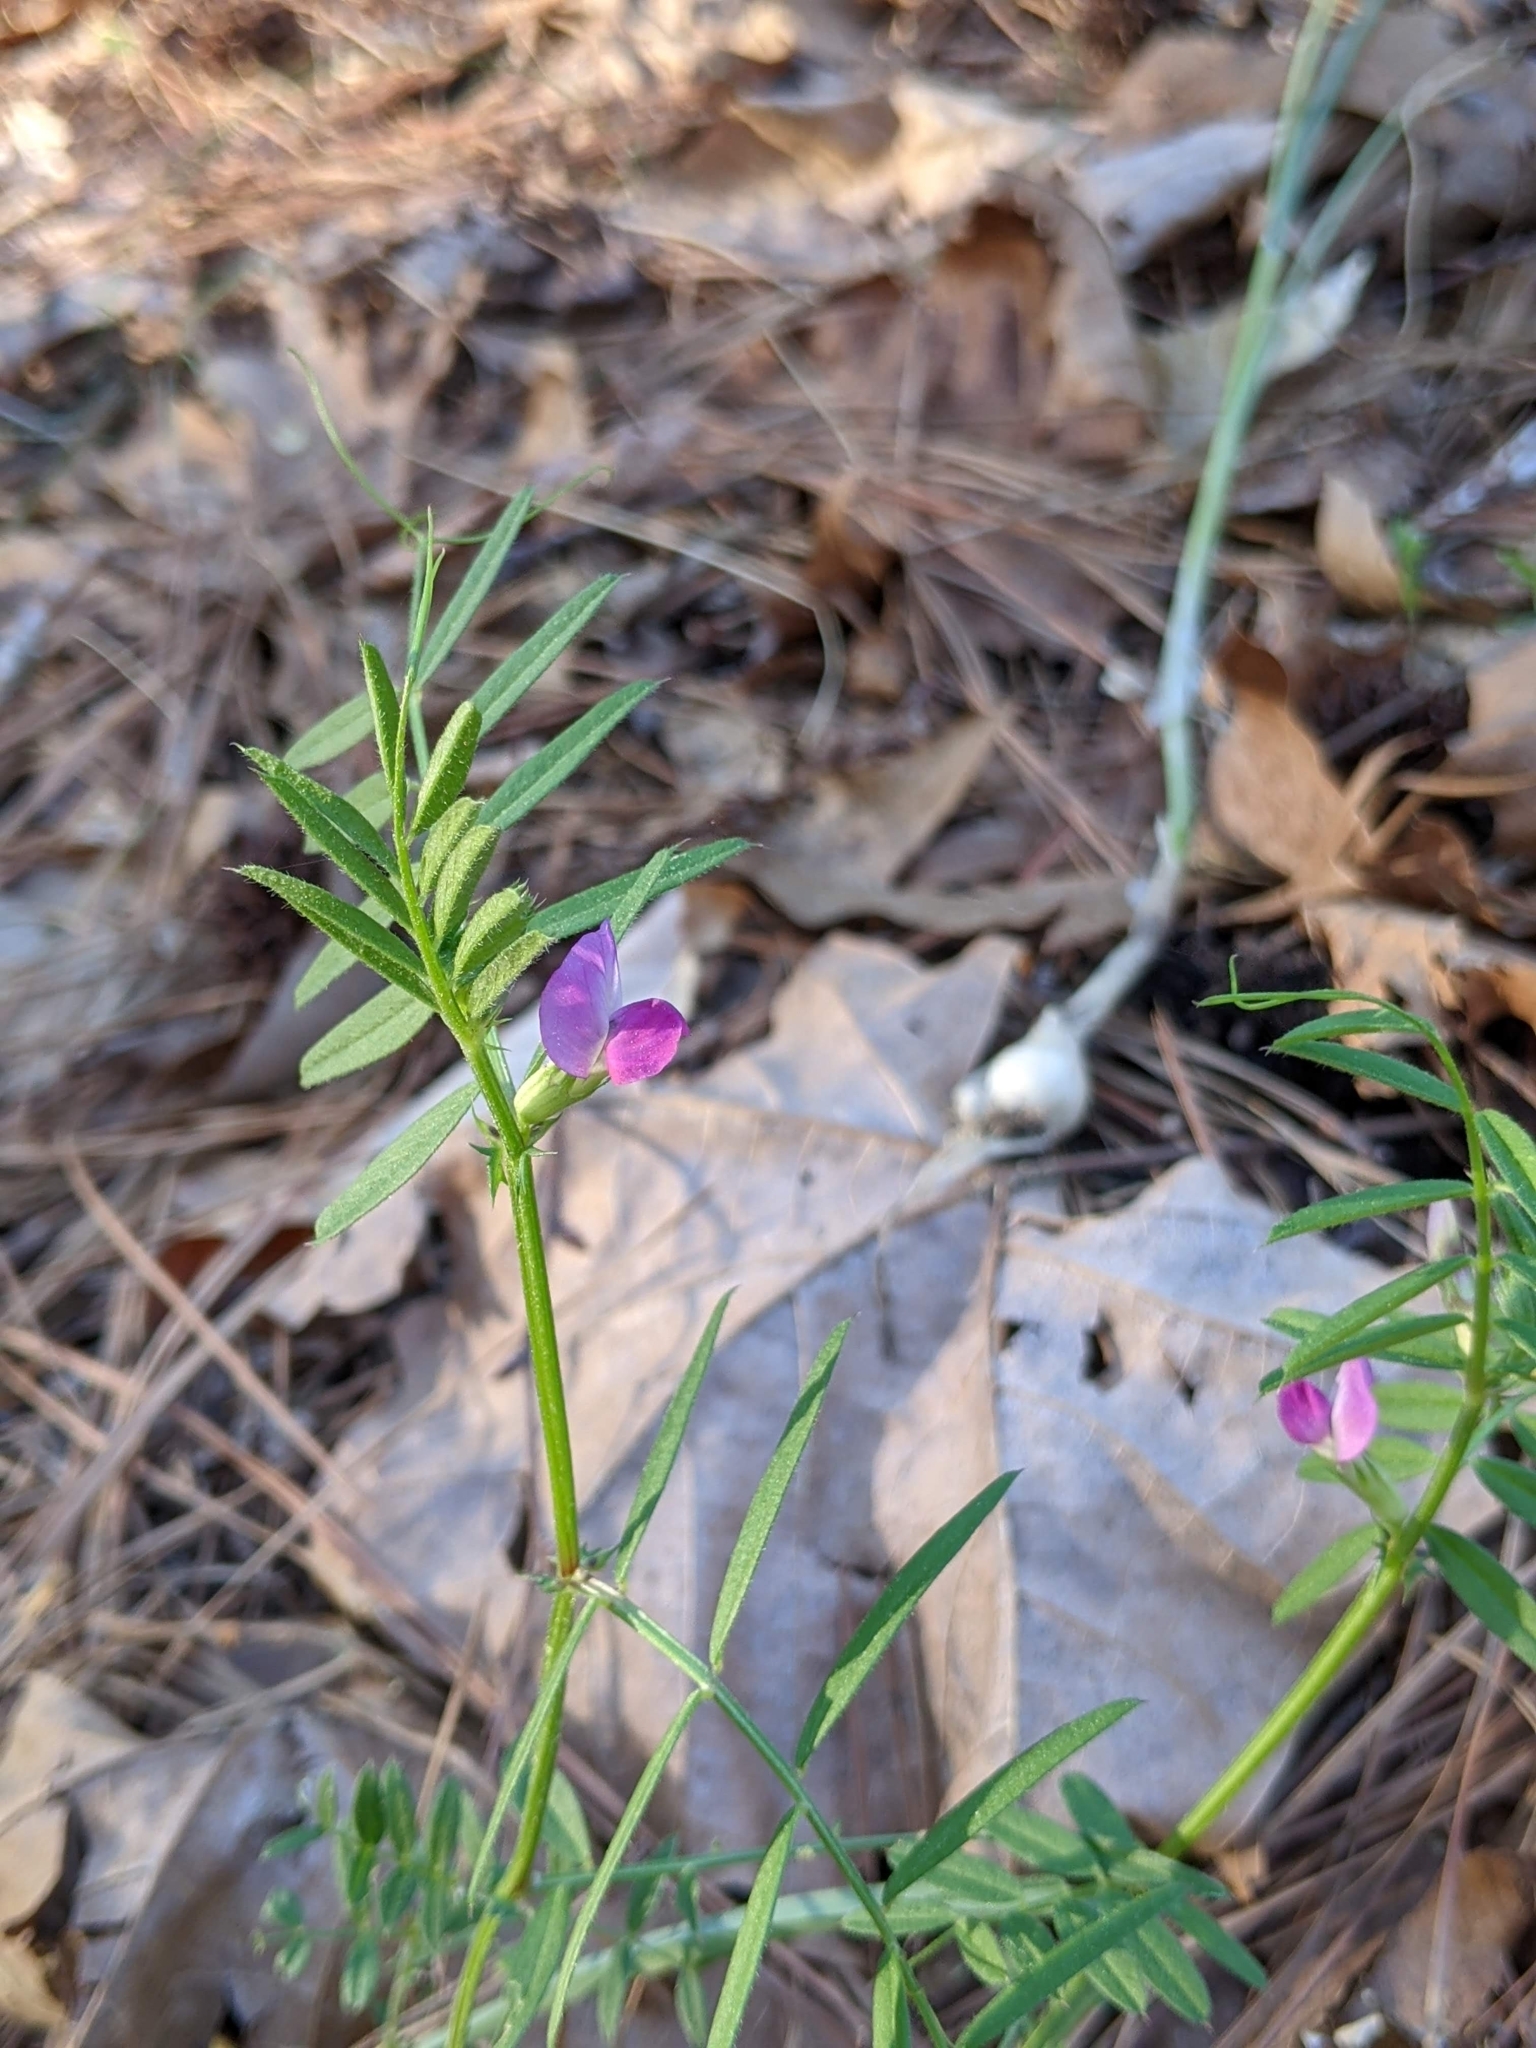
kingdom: Plantae
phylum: Tracheophyta
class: Magnoliopsida
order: Fabales
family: Fabaceae
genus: Vicia
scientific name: Vicia sativa
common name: Garden vetch
